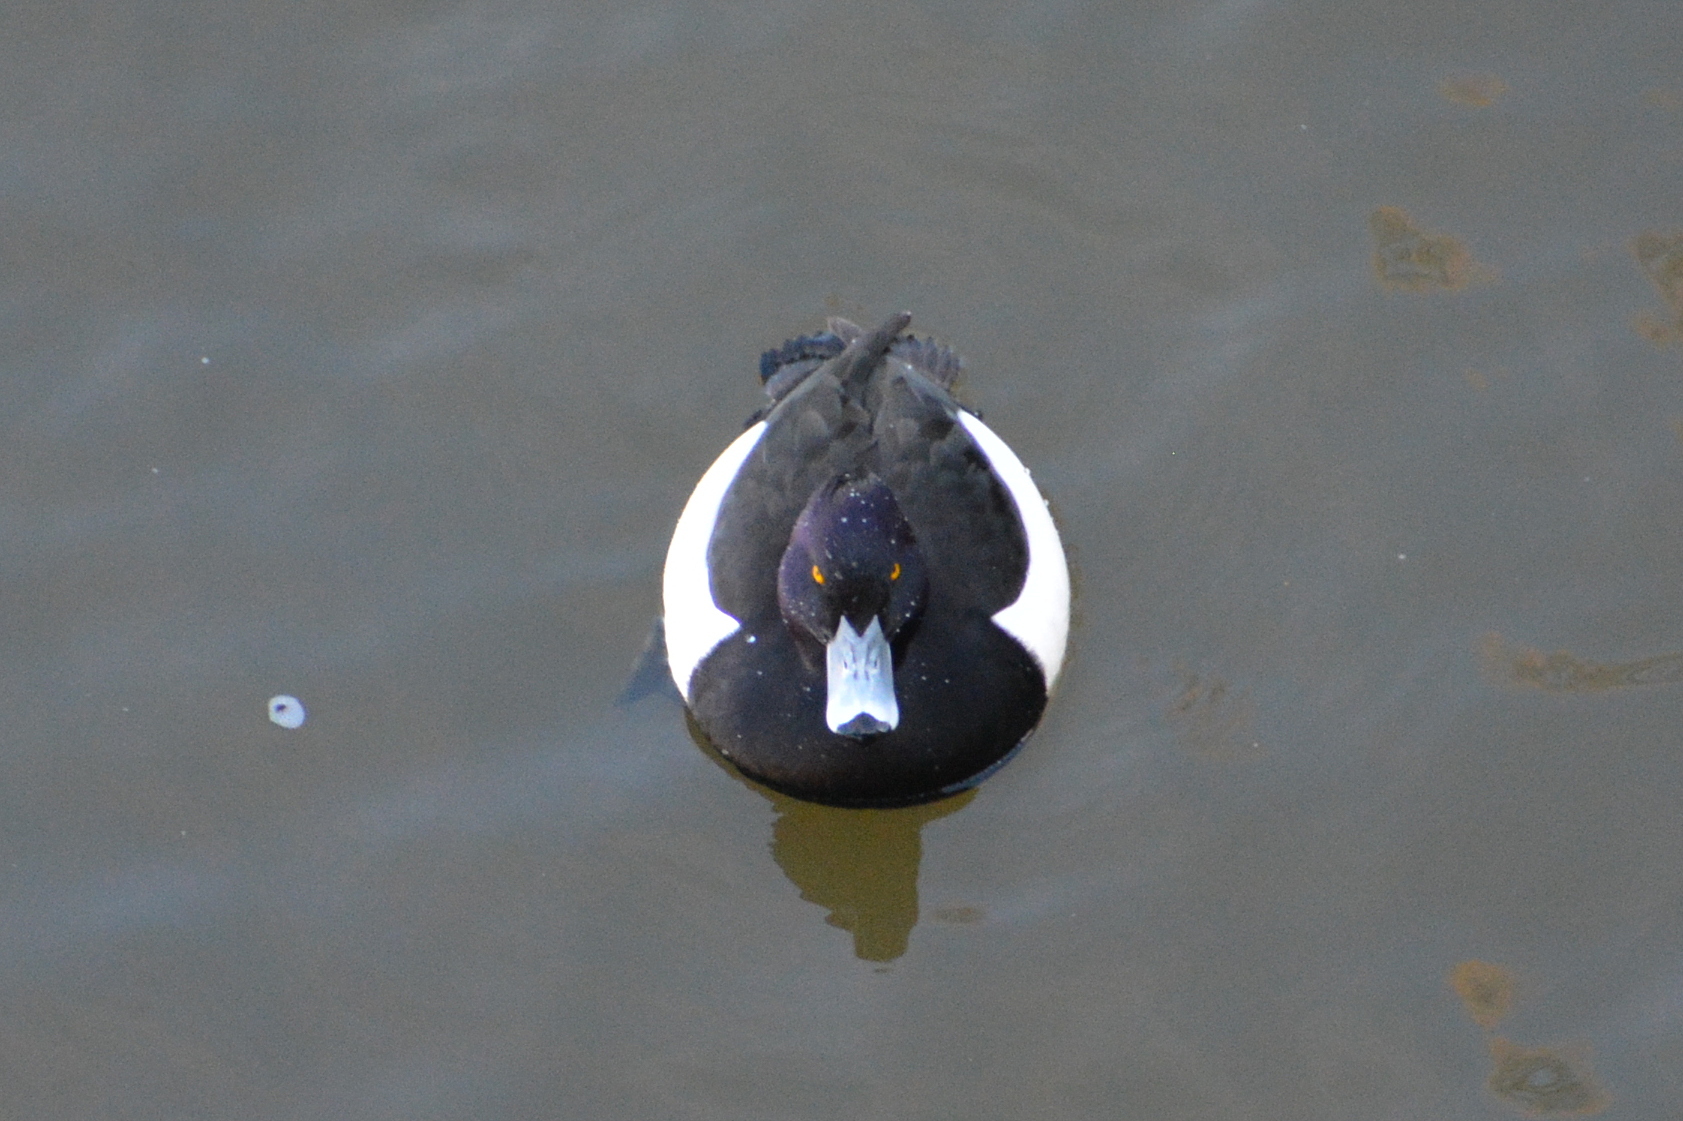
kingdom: Animalia
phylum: Chordata
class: Aves
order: Anseriformes
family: Anatidae
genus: Aythya
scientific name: Aythya fuligula
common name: Tufted duck
